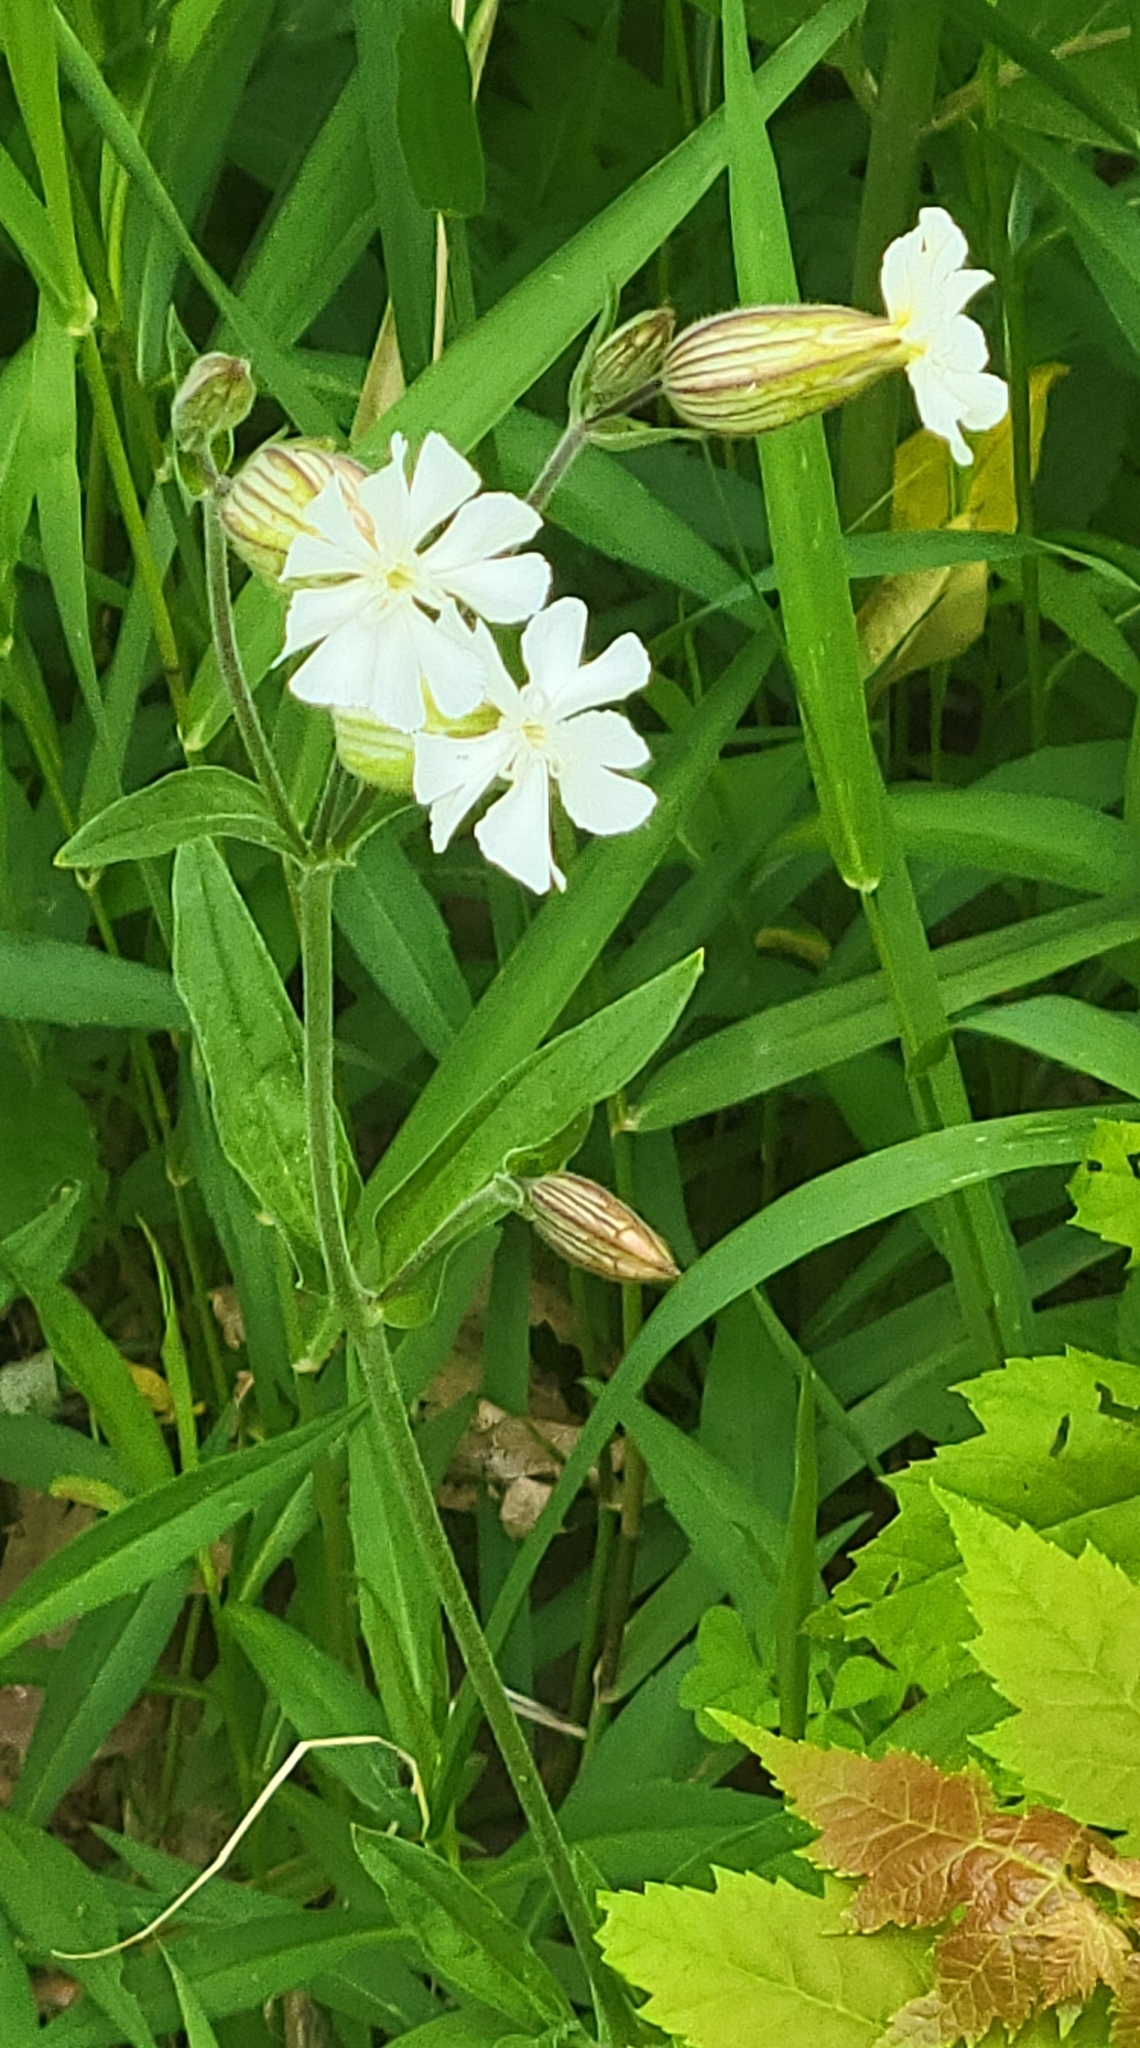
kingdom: Plantae
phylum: Tracheophyta
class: Magnoliopsida
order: Caryophyllales
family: Caryophyllaceae
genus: Silene
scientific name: Silene latifolia
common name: White campion
